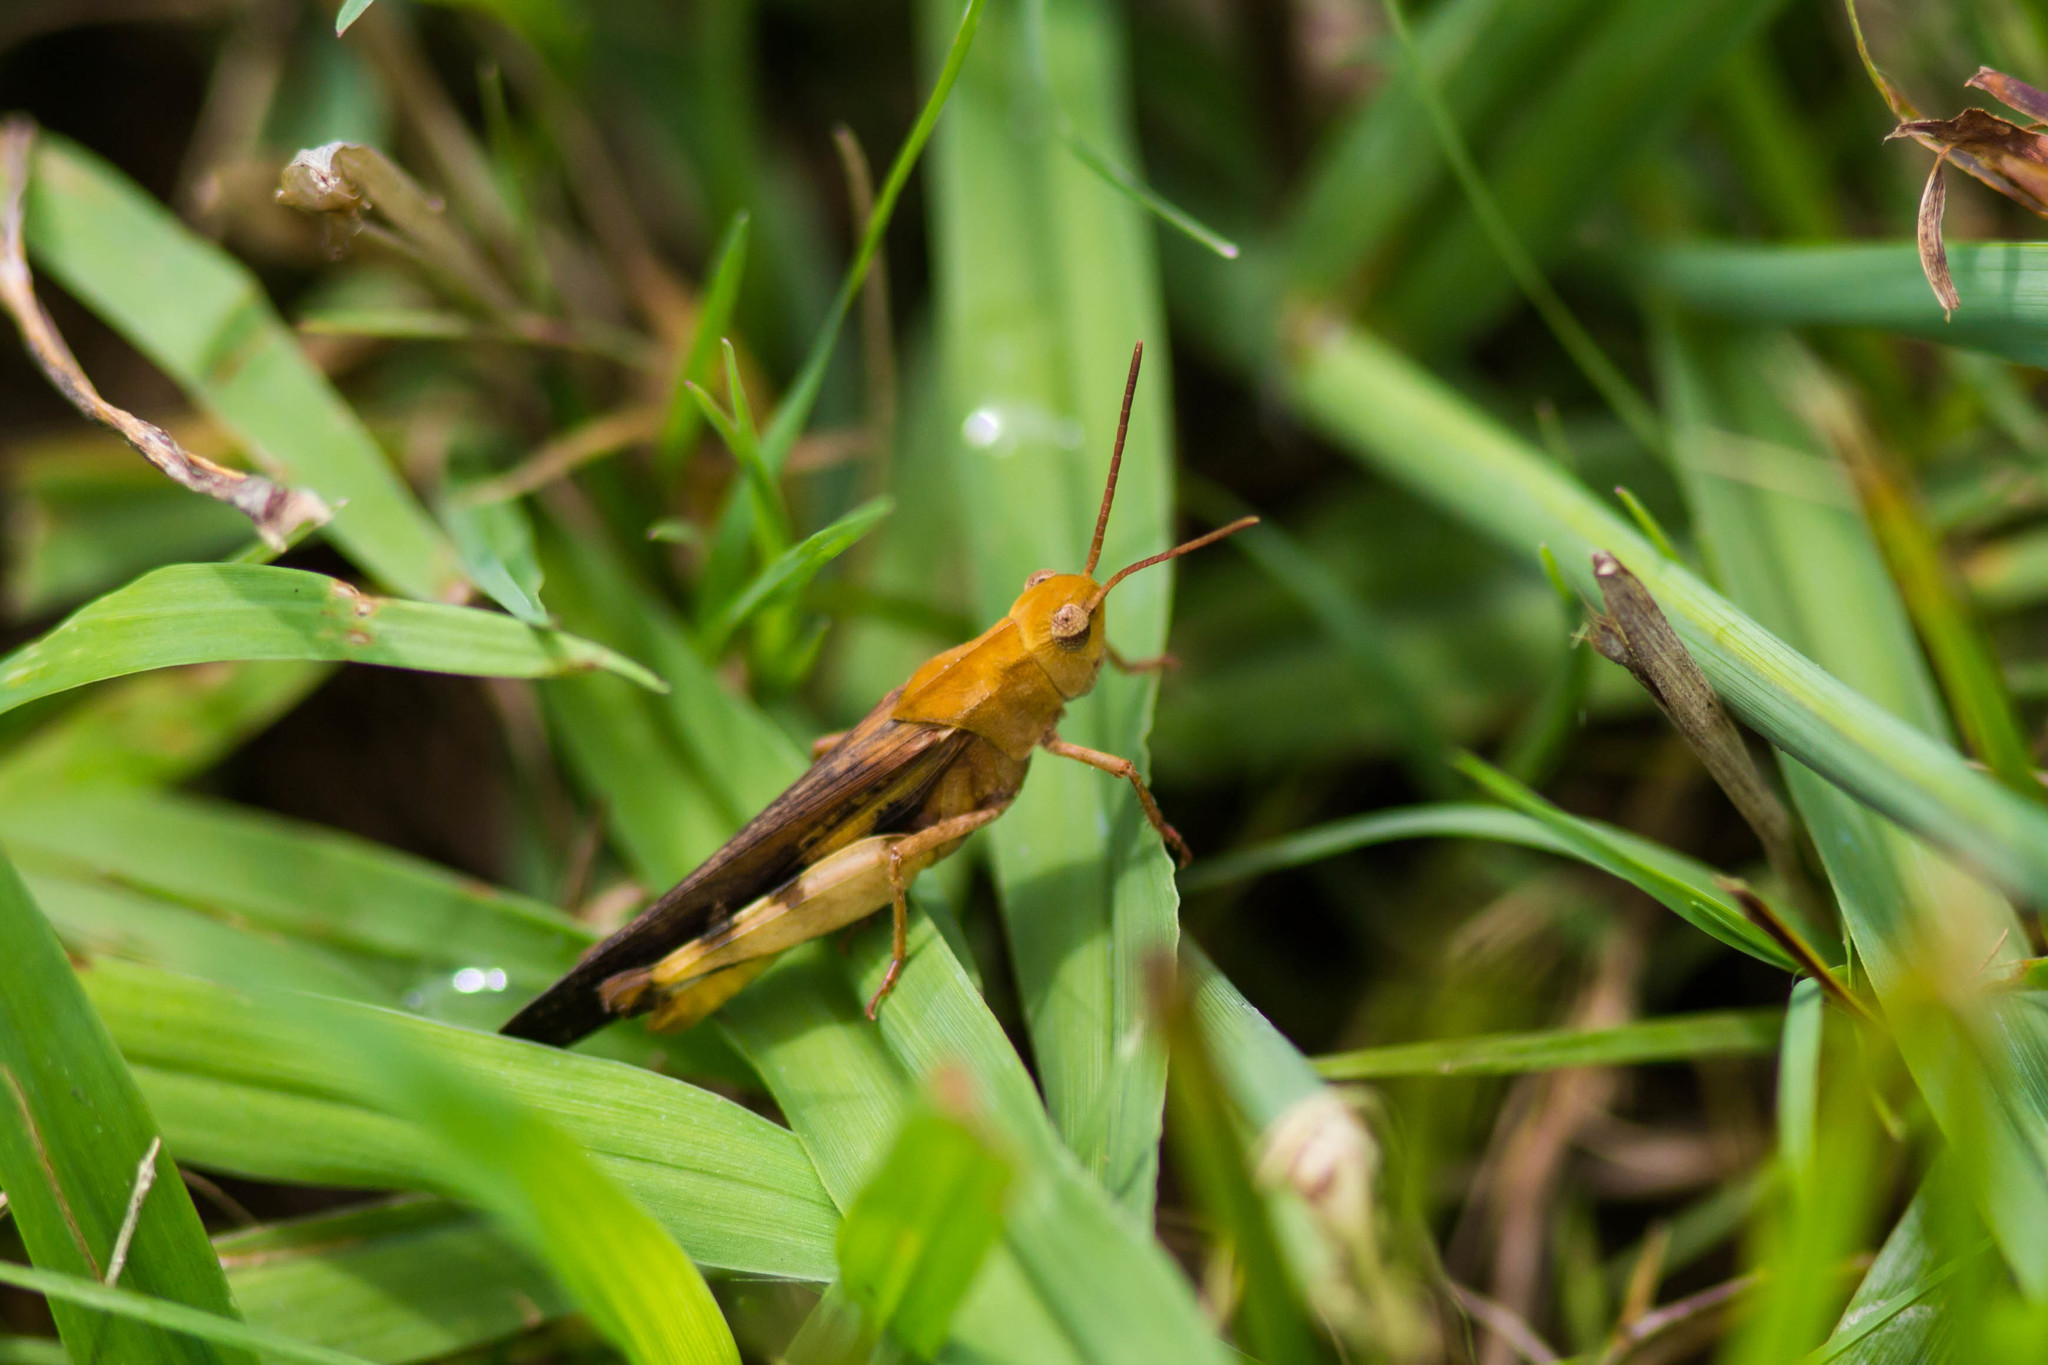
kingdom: Animalia
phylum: Arthropoda
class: Insecta
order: Orthoptera
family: Acrididae
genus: Chortophaga
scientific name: Chortophaga viridifasciata
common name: Green-striped grasshopper
